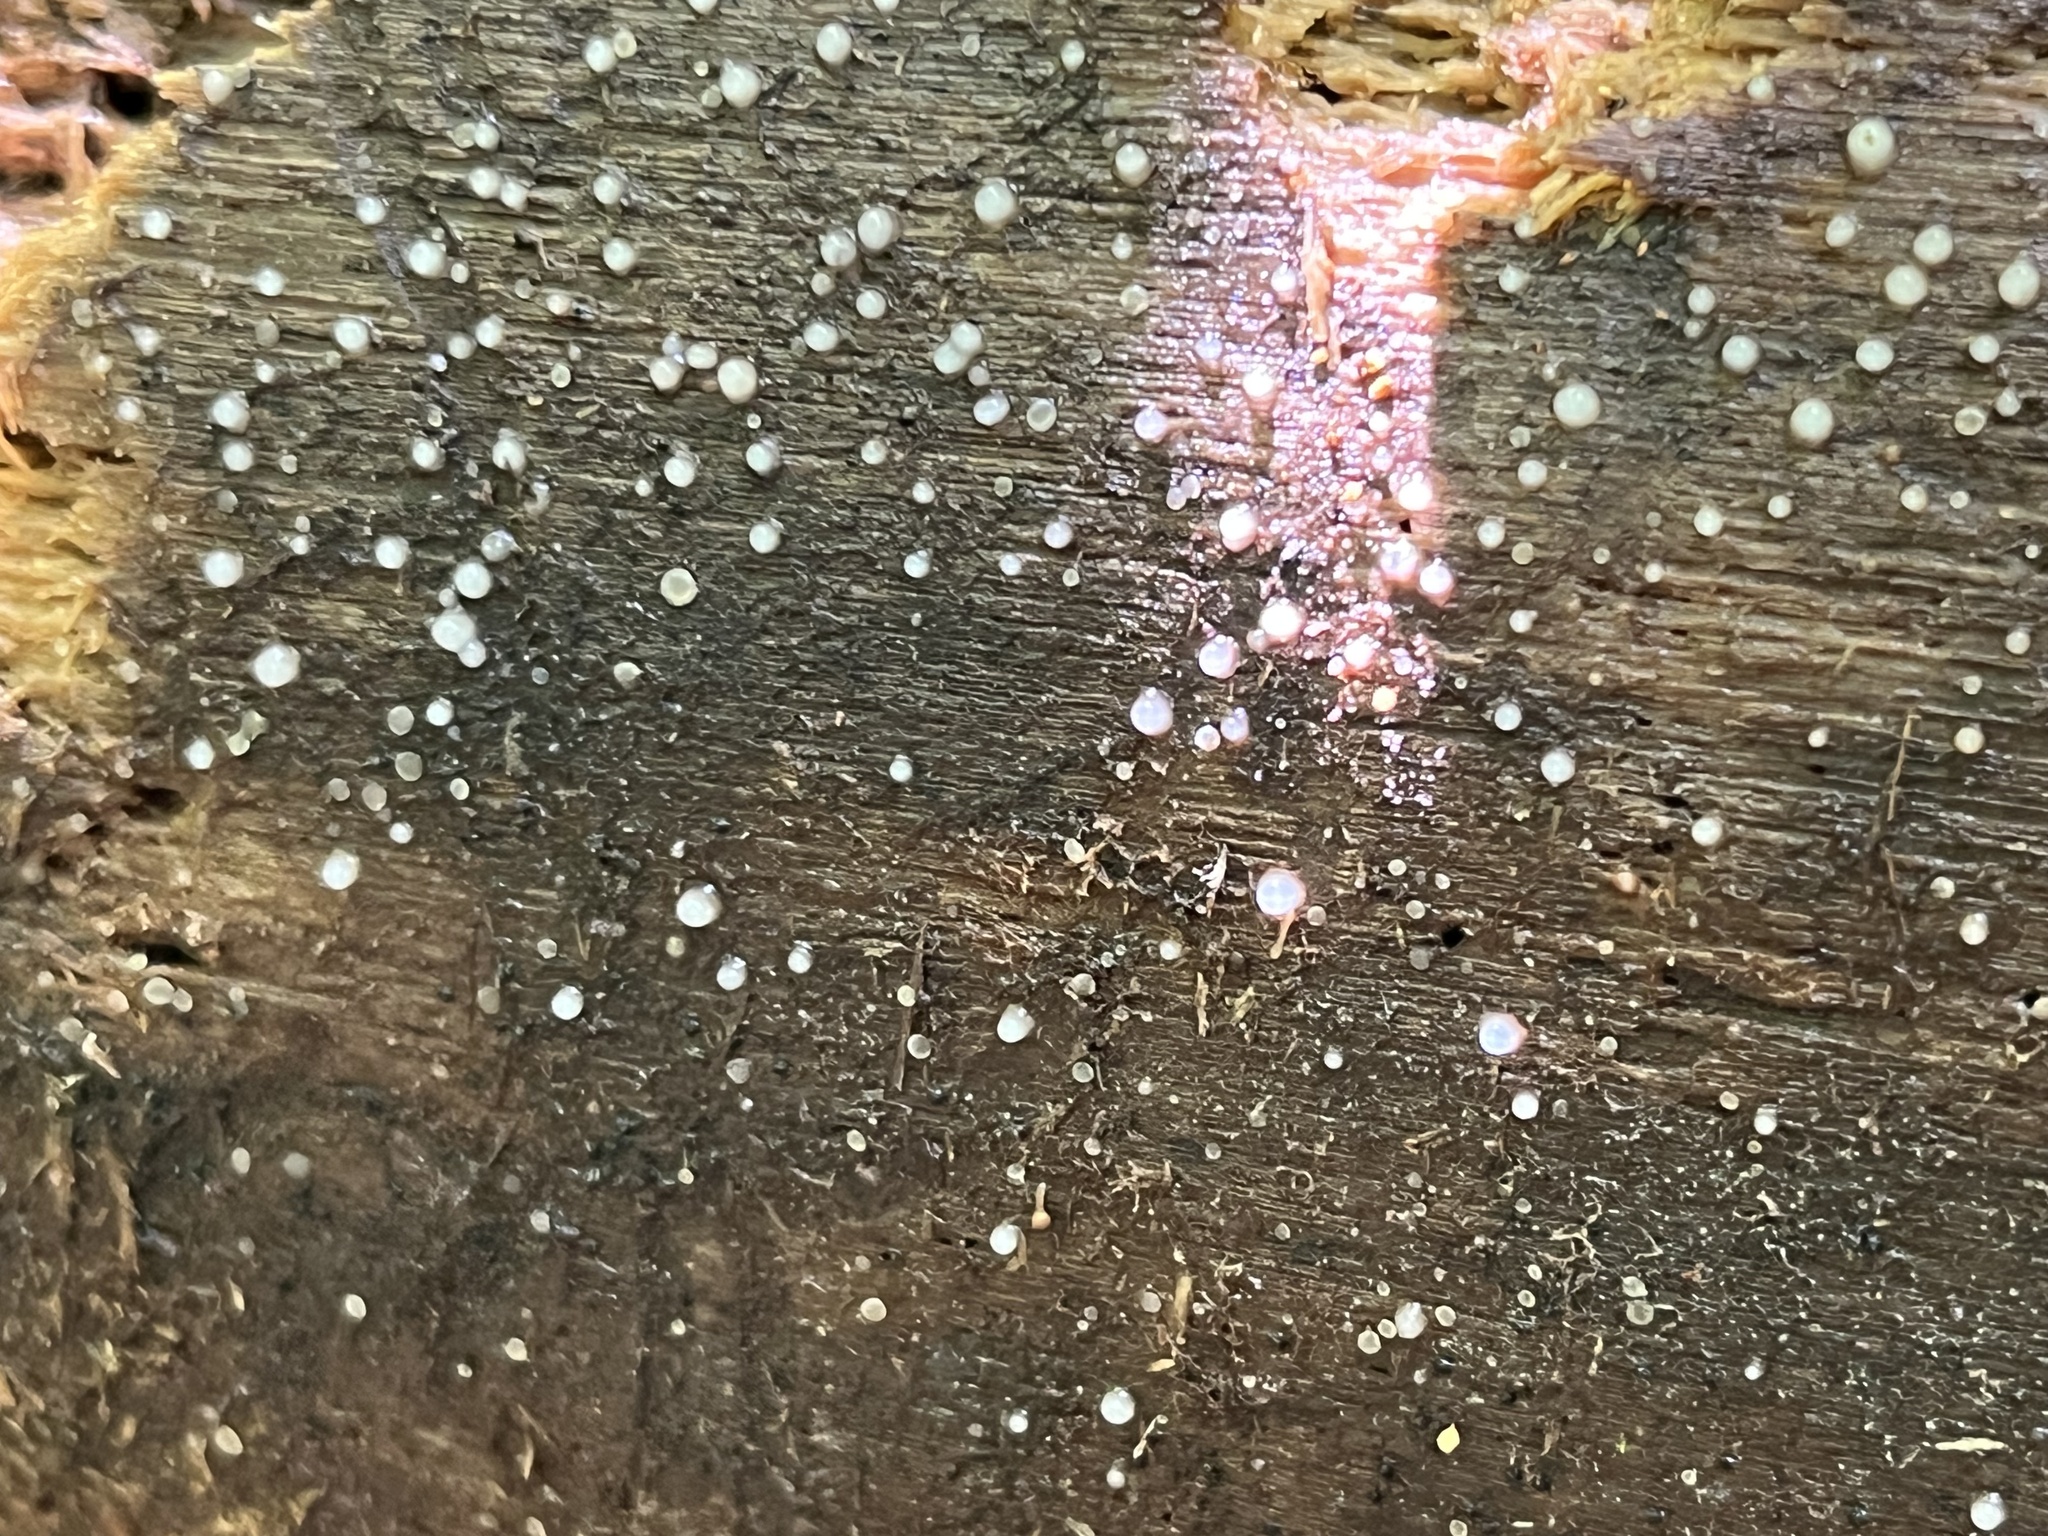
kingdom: Fungi
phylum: Basidiomycota
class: Atractiellomycetes
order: Atractiellales
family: Phleogenaceae
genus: Helicogloea
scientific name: Helicogloea compressa
